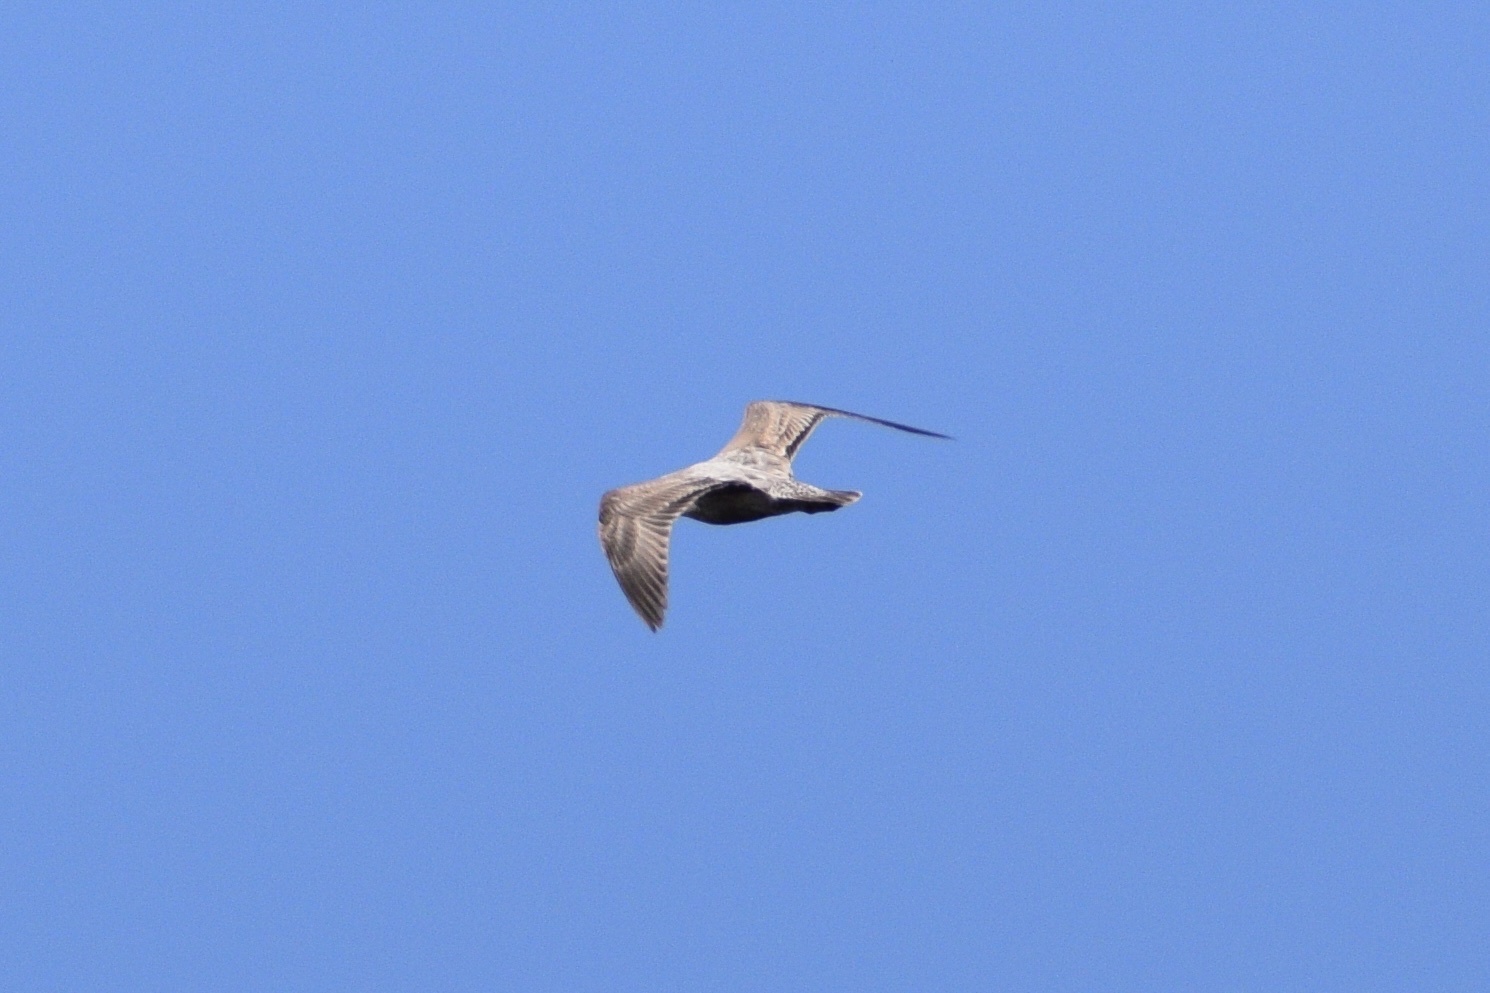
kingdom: Animalia
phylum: Chordata
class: Aves
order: Charadriiformes
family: Laridae
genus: Larus
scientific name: Larus argentatus
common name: Herring gull
